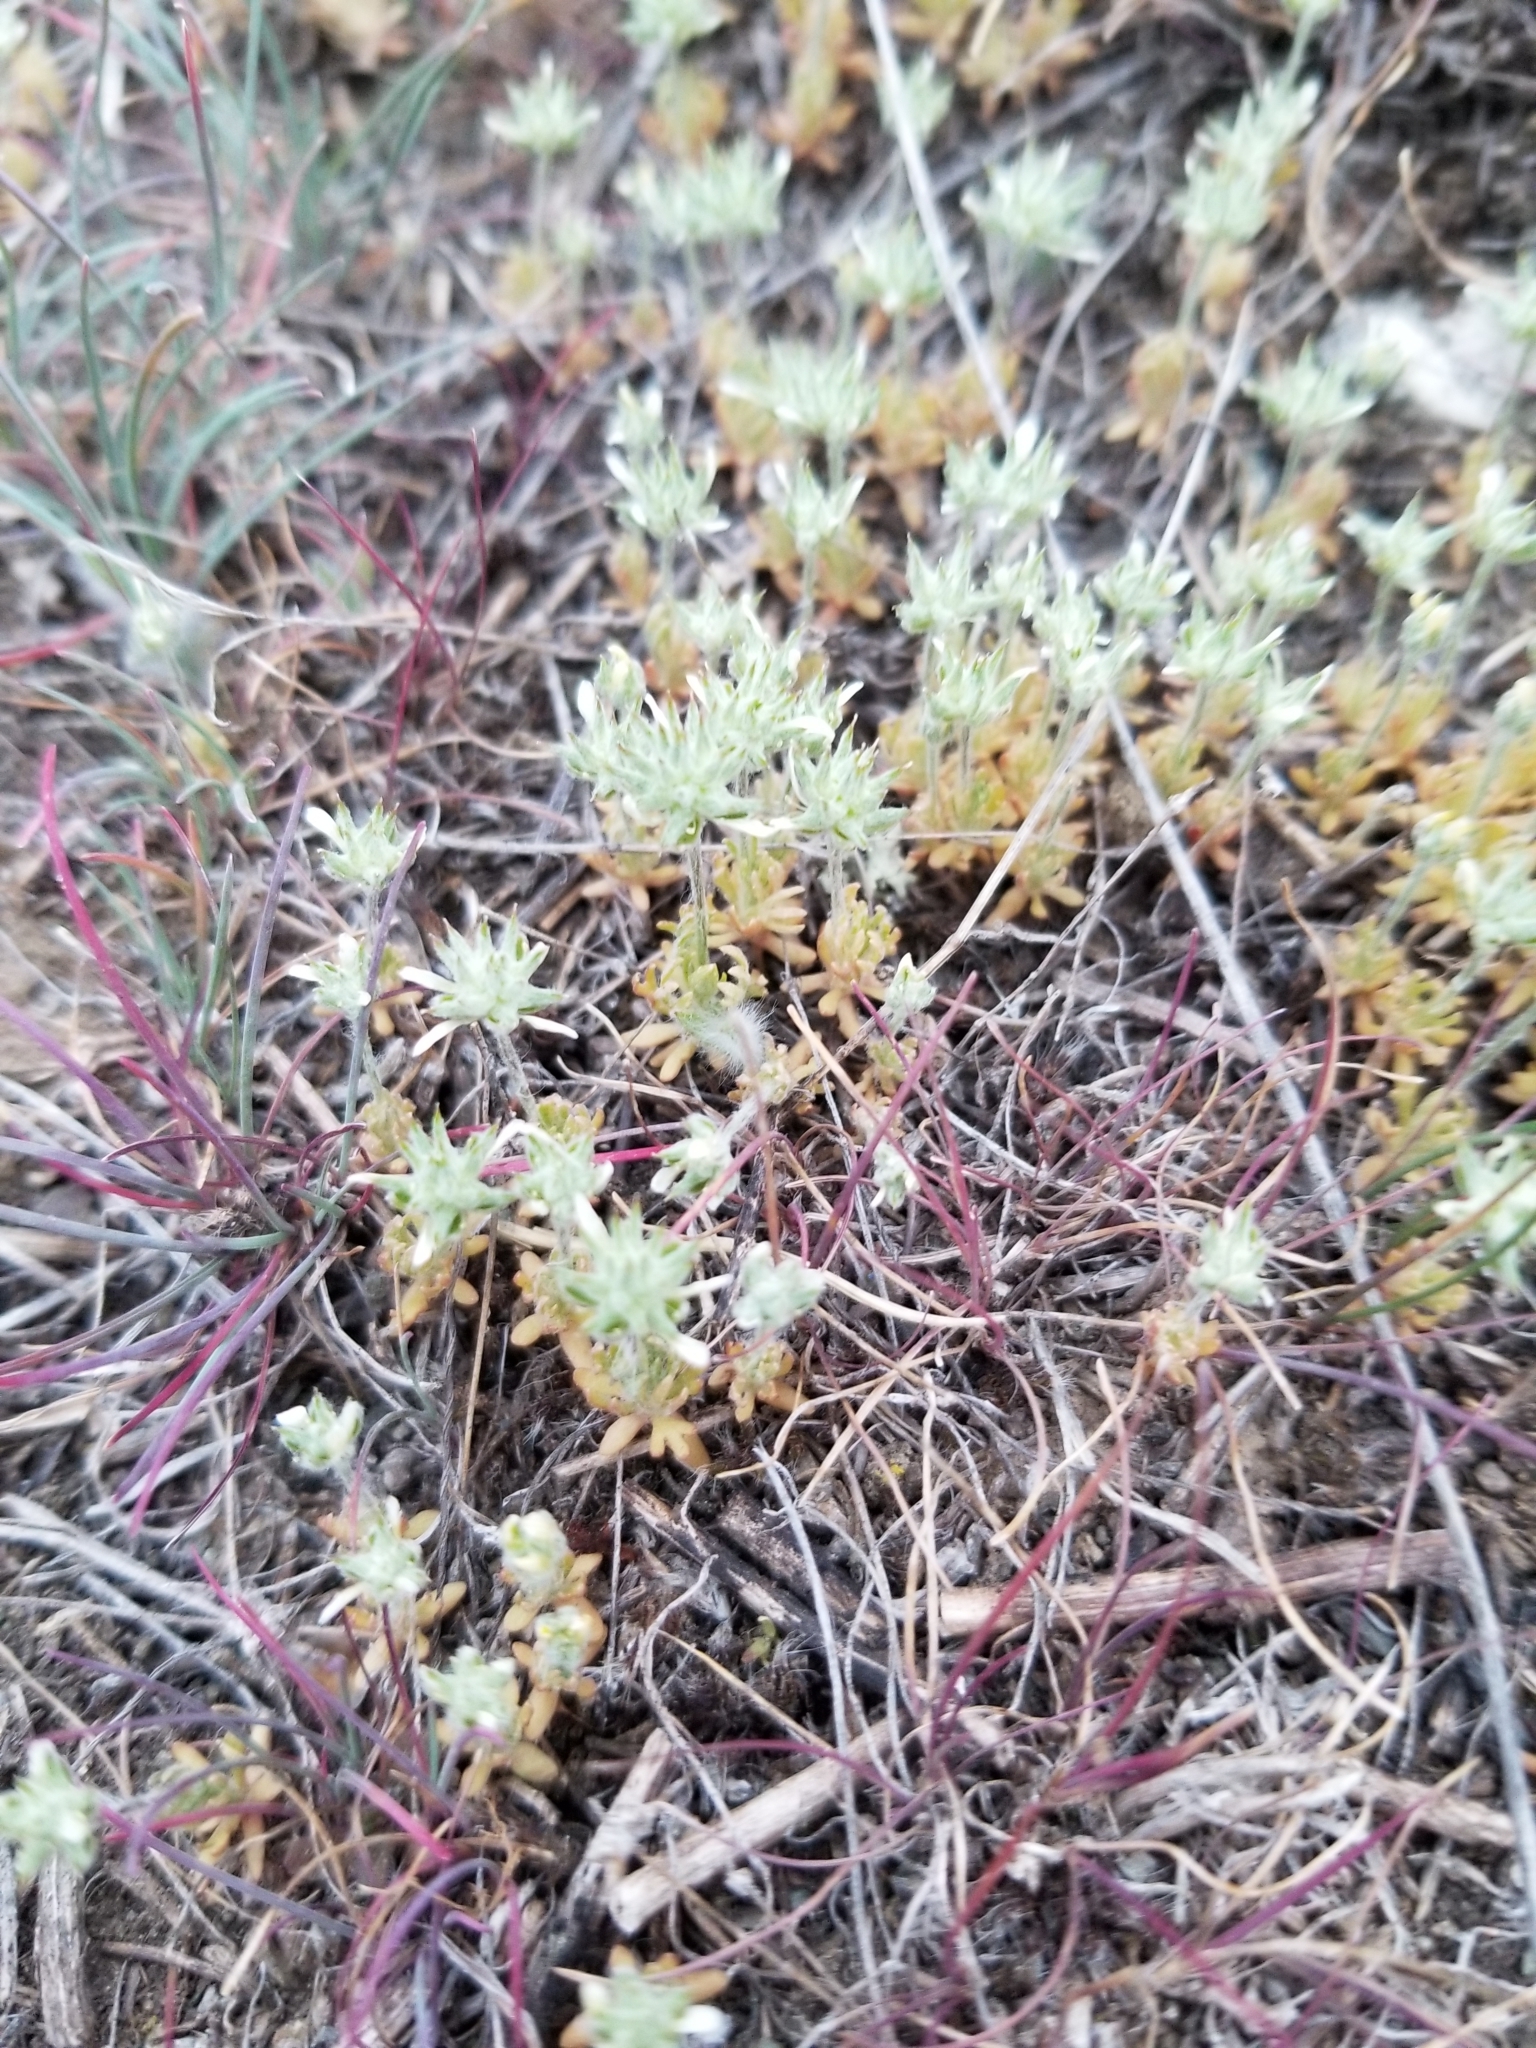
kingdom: Plantae
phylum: Tracheophyta
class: Magnoliopsida
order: Ranunculales
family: Ranunculaceae
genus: Ceratocephala
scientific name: Ceratocephala orthoceras
